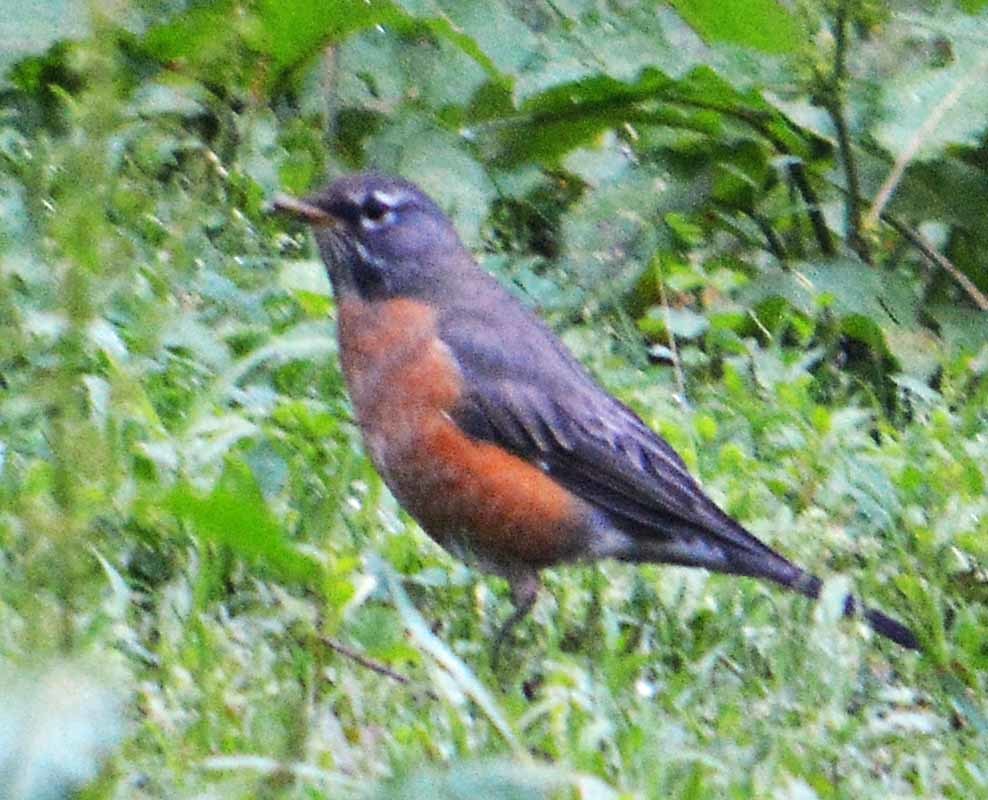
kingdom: Animalia
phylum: Chordata
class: Aves
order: Passeriformes
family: Turdidae
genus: Turdus
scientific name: Turdus migratorius
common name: American robin
